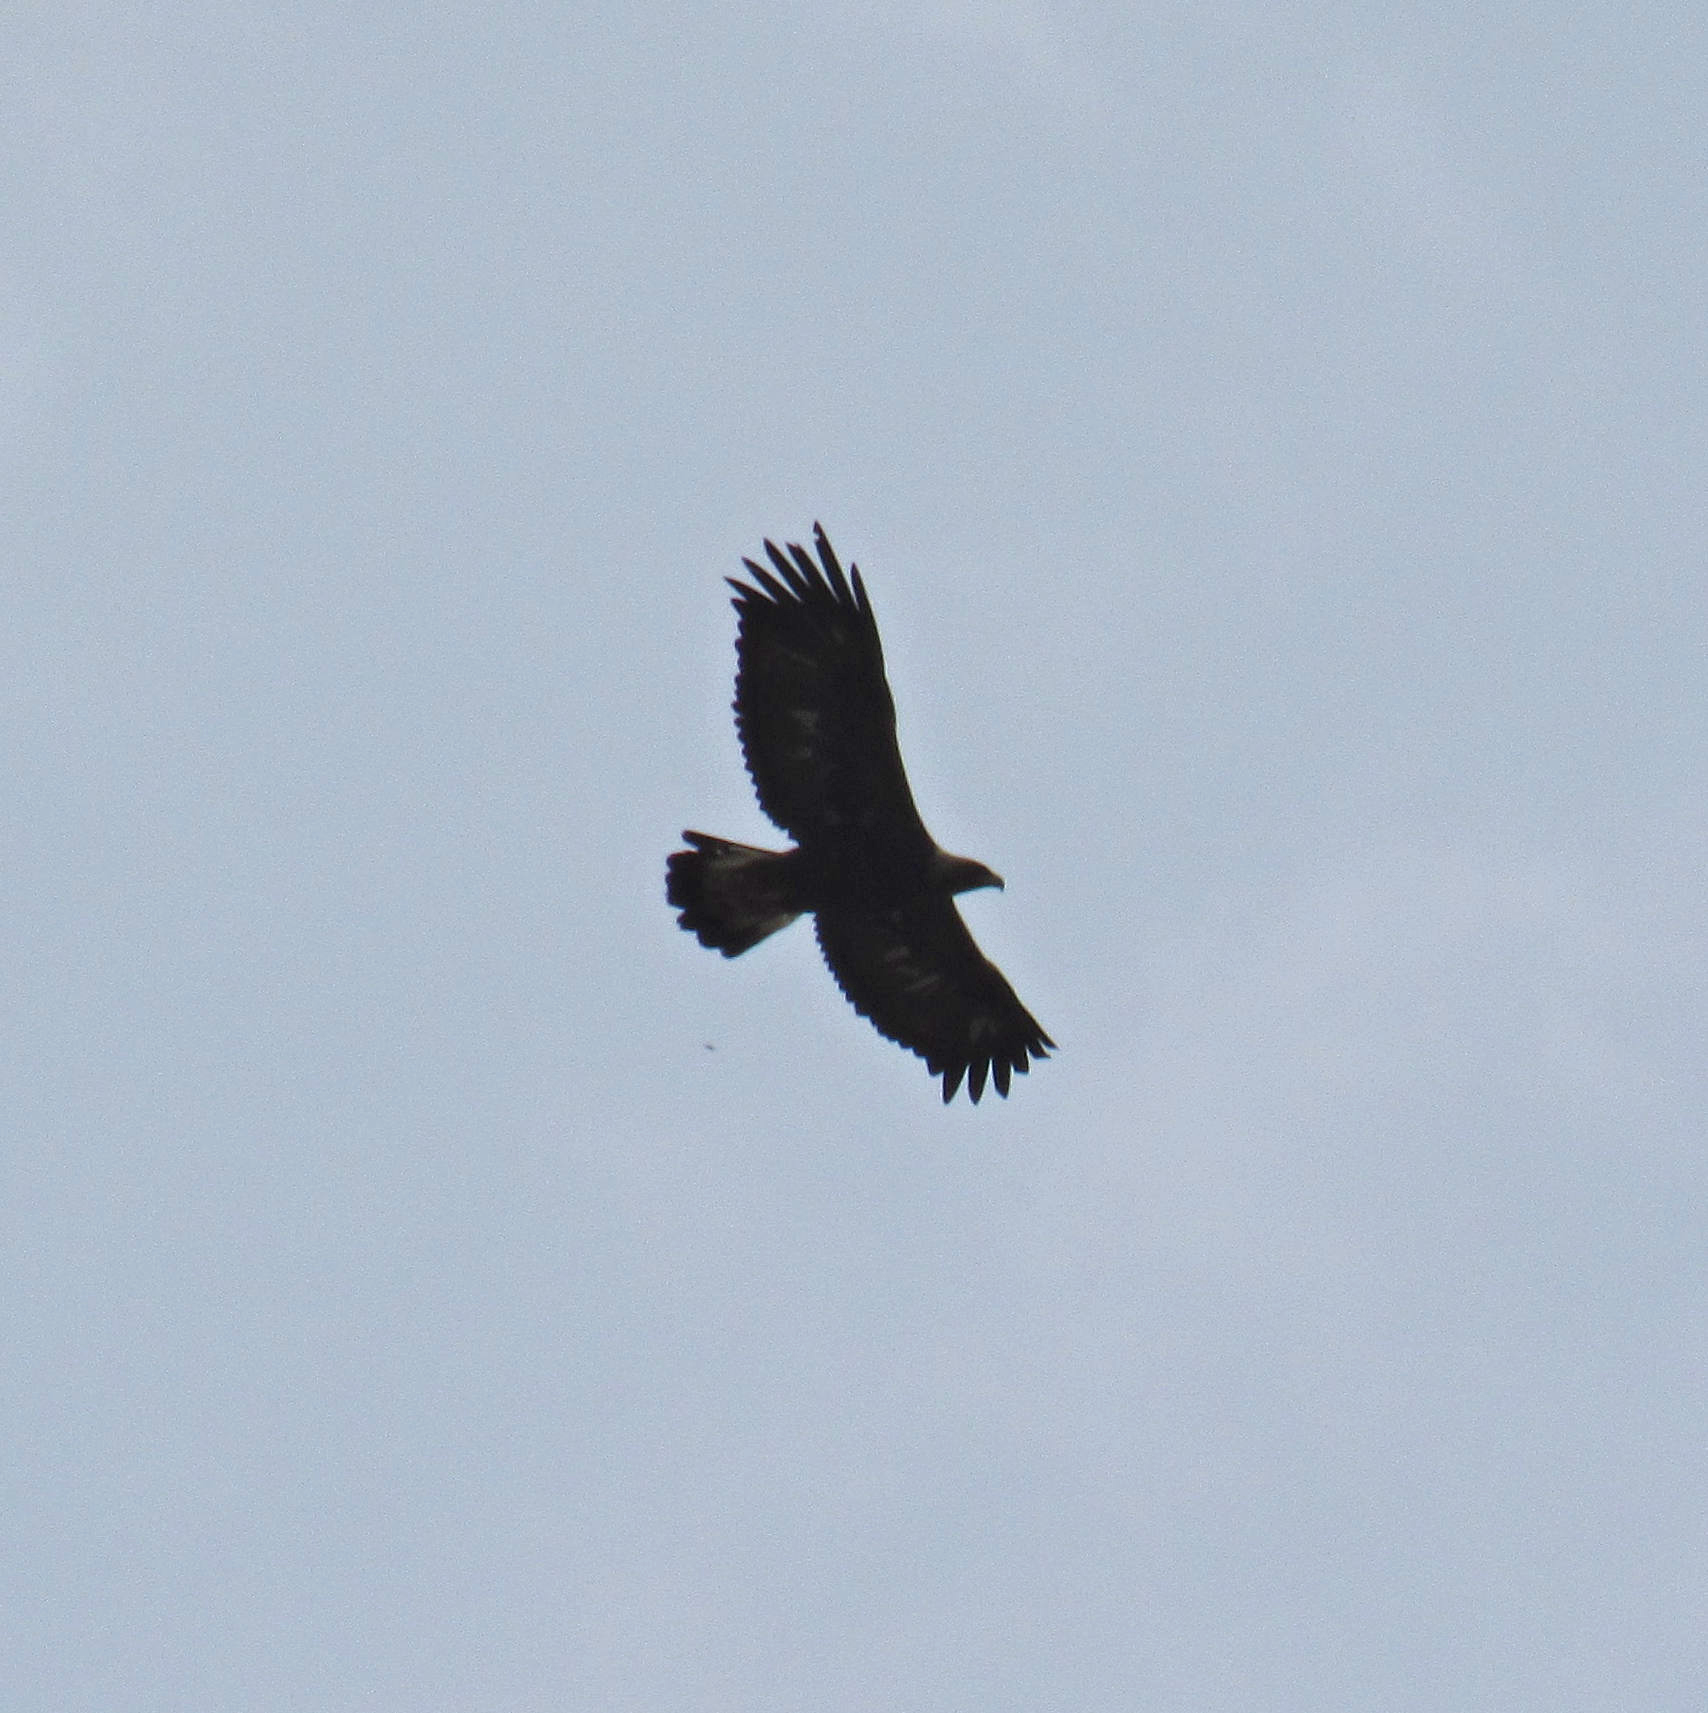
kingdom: Animalia
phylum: Chordata
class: Aves
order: Accipitriformes
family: Accipitridae
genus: Aquila
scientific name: Aquila chrysaetos
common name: Golden eagle
